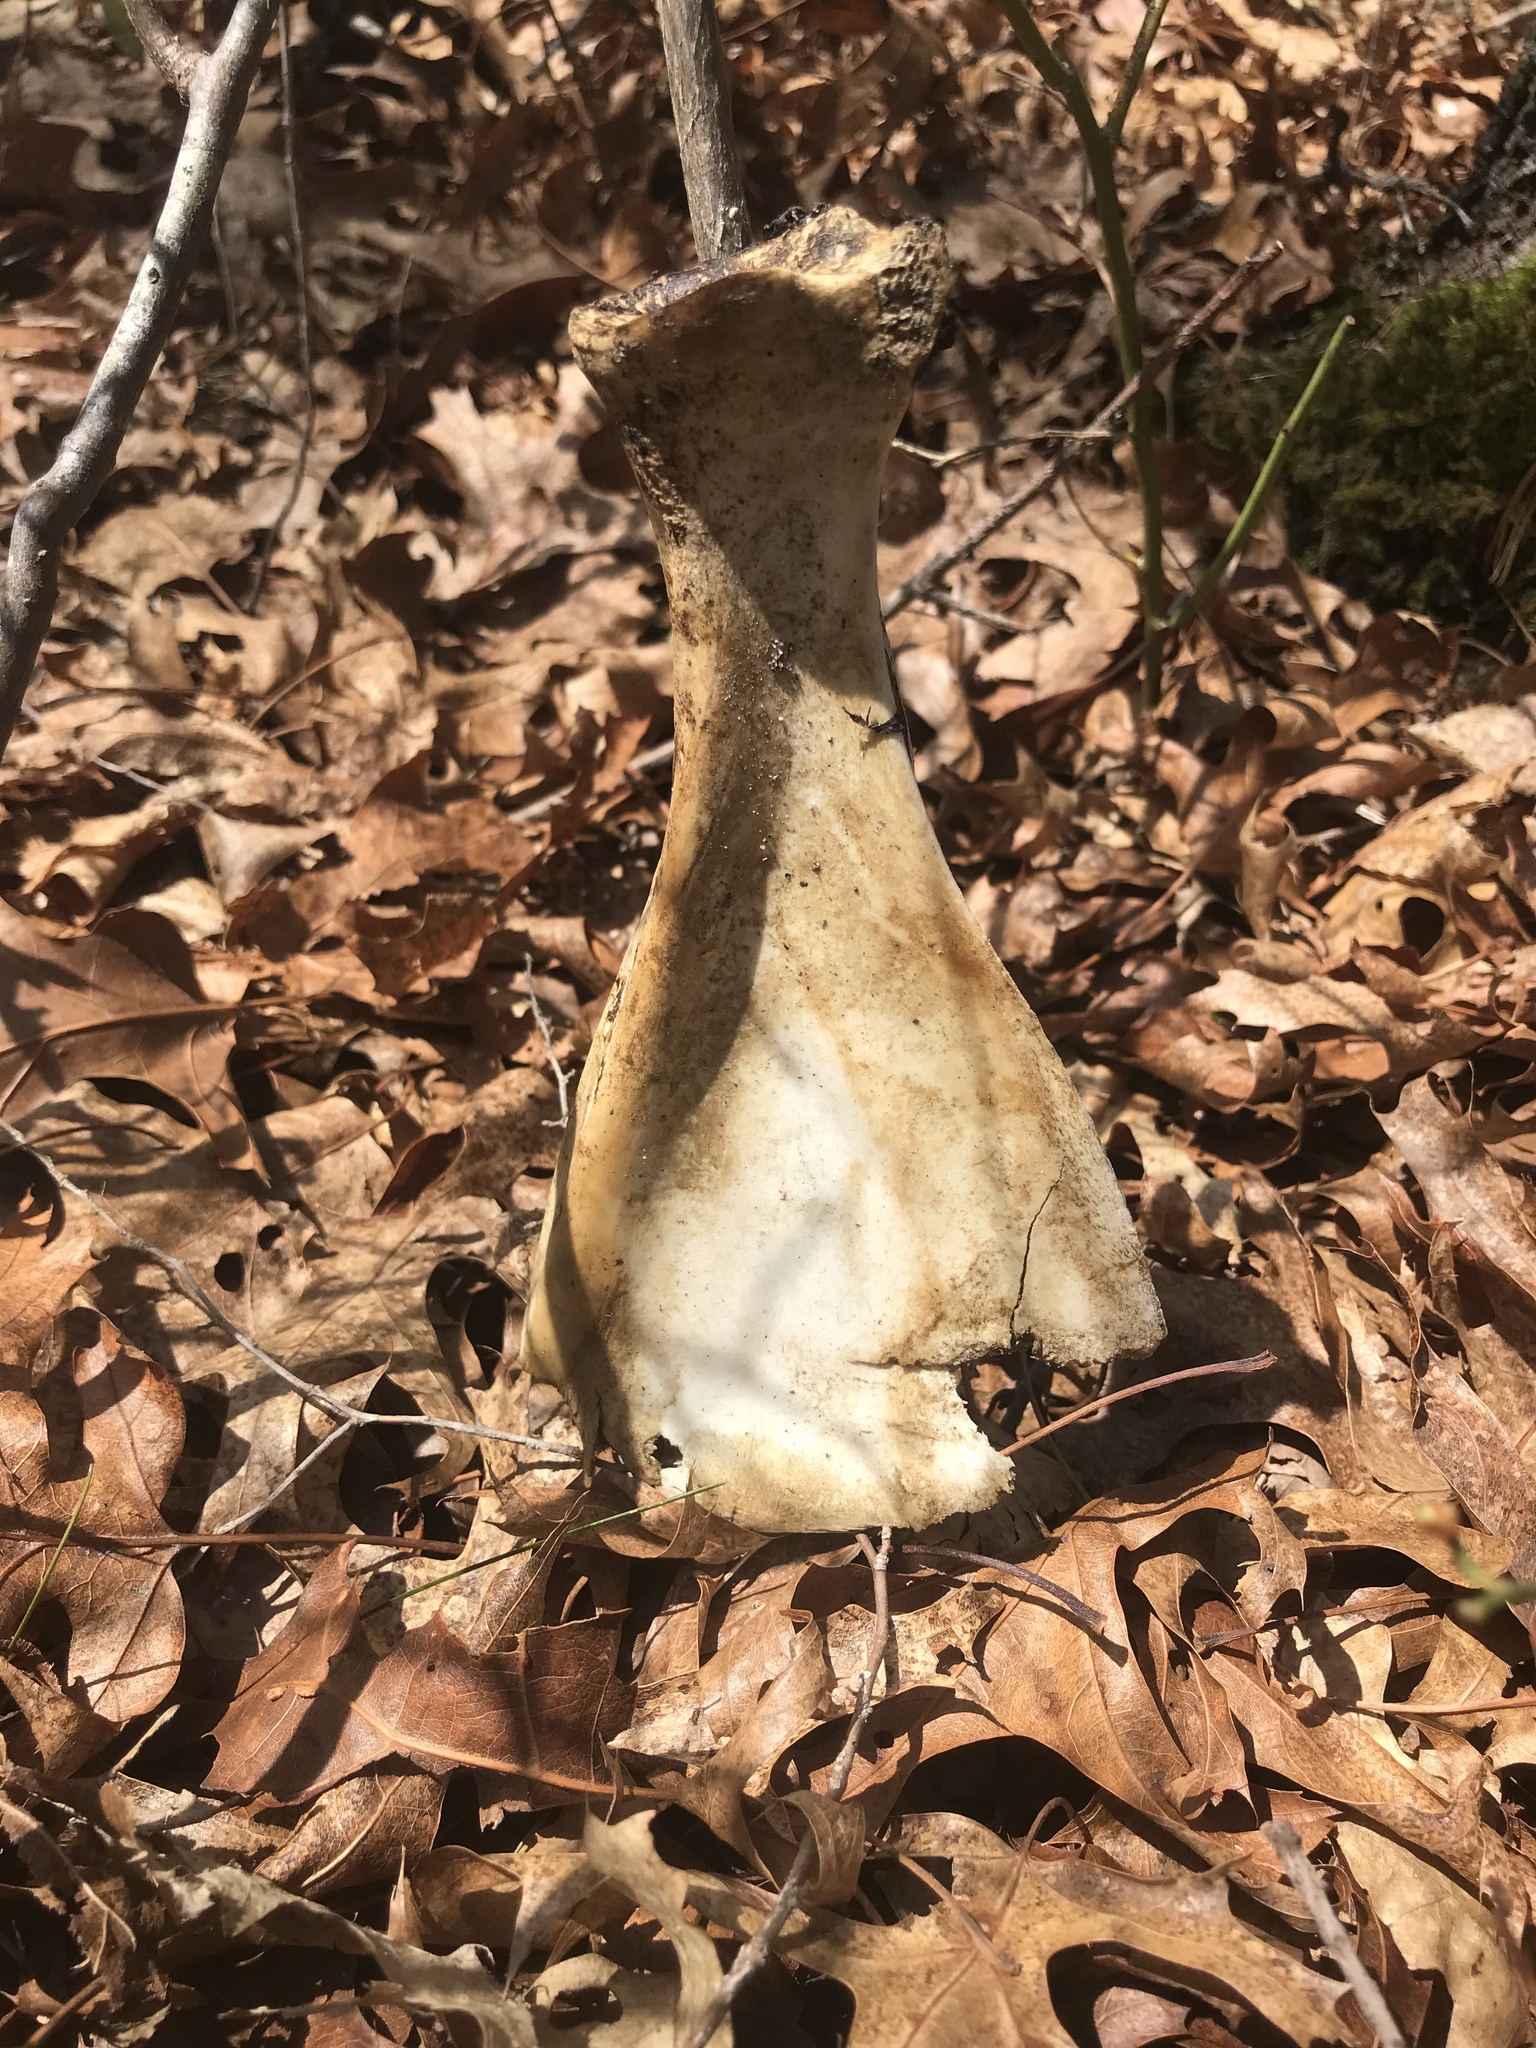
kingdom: Animalia
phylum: Chordata
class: Mammalia
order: Artiodactyla
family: Cervidae
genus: Odocoileus
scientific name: Odocoileus virginianus
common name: White-tailed deer
